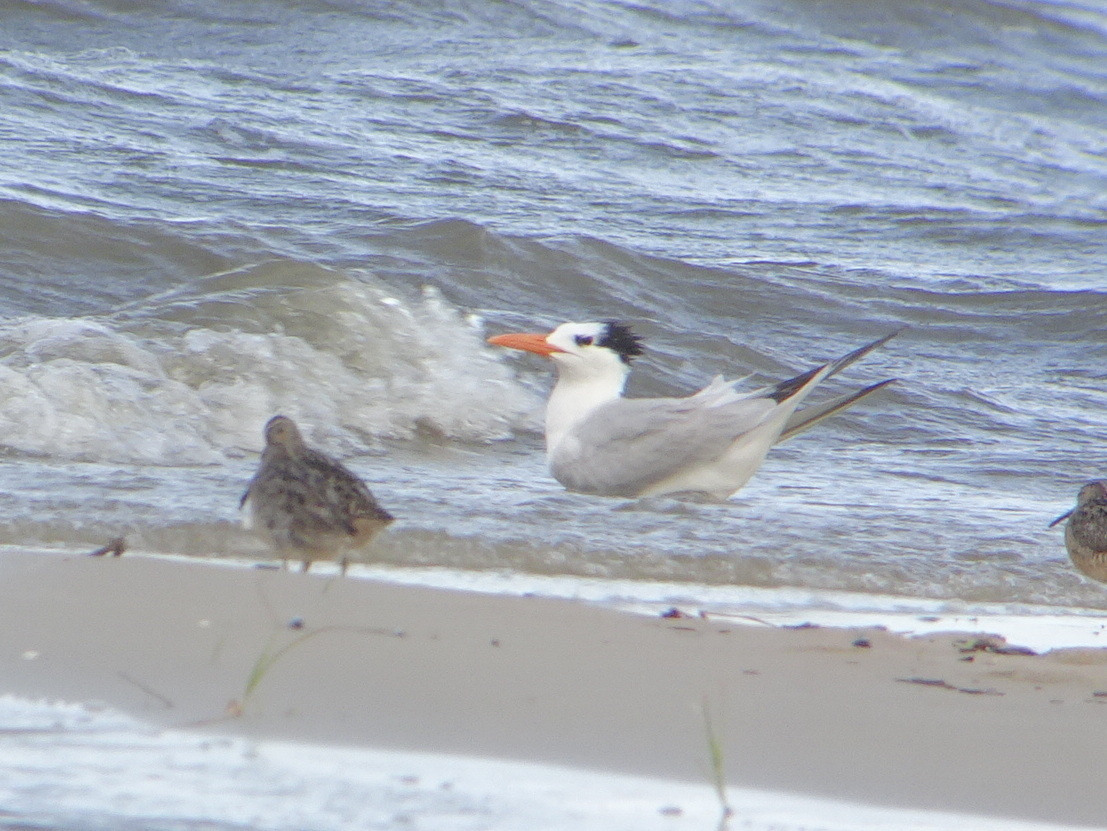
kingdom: Animalia
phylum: Chordata
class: Aves
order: Charadriiformes
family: Laridae
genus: Thalasseus
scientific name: Thalasseus maximus
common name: Royal tern
